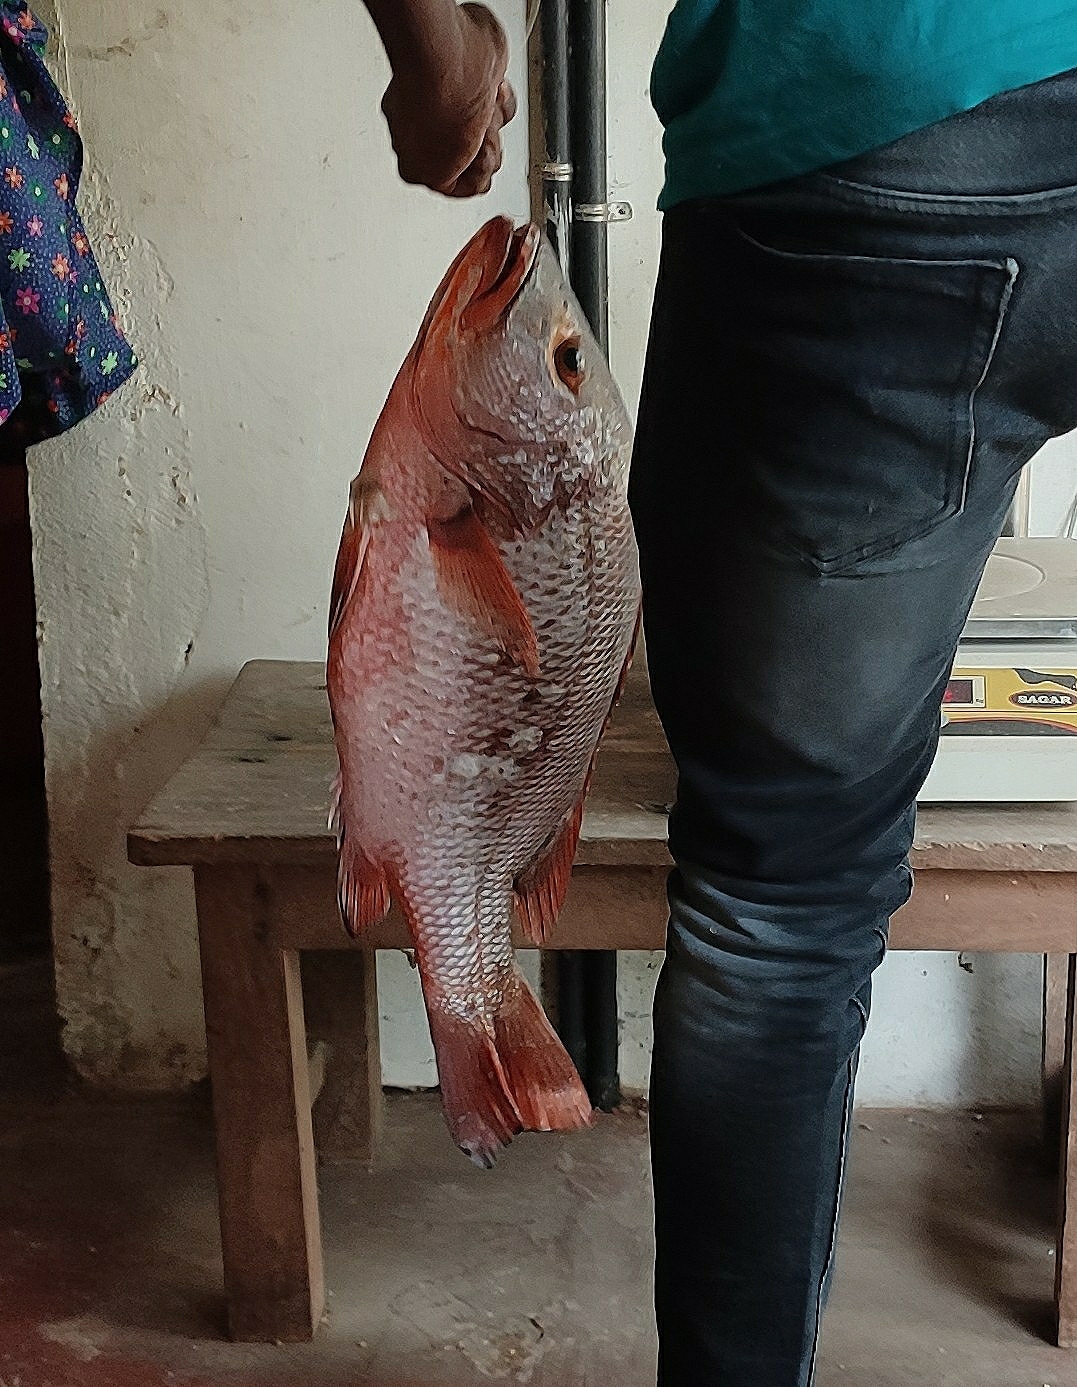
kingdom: Animalia
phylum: Chordata
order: Perciformes
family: Lutjanidae
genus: Lutjanus
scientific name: Lutjanus argentimaculatus
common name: Mangrove red snapper
